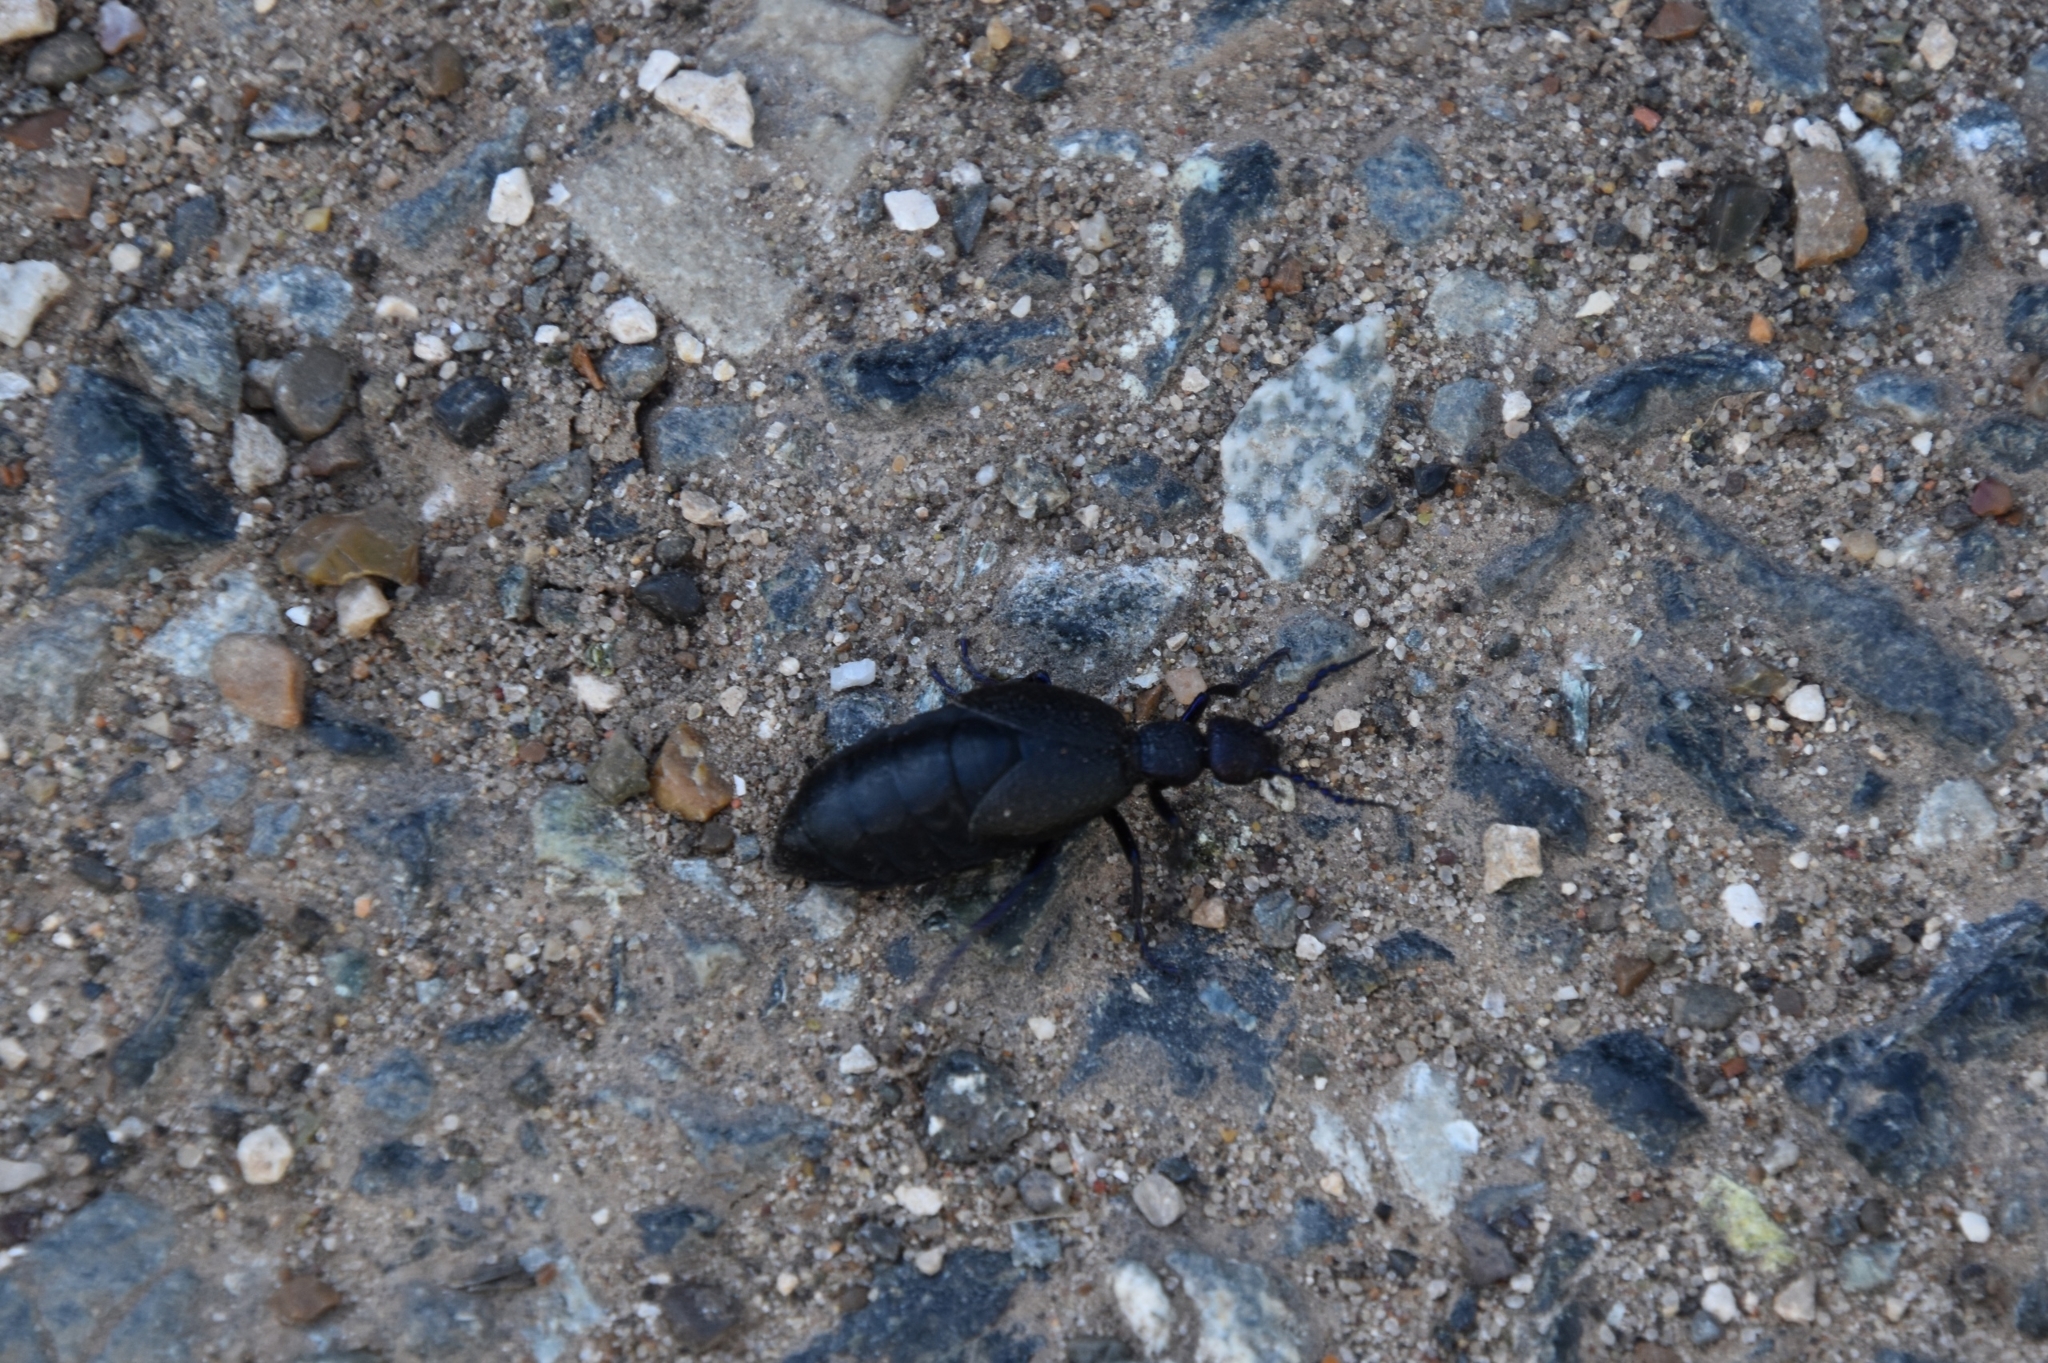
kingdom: Animalia
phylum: Arthropoda
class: Insecta
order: Coleoptera
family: Meloidae
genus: Meloe
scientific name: Meloe proscarabaeus
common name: Black oil-beetle
